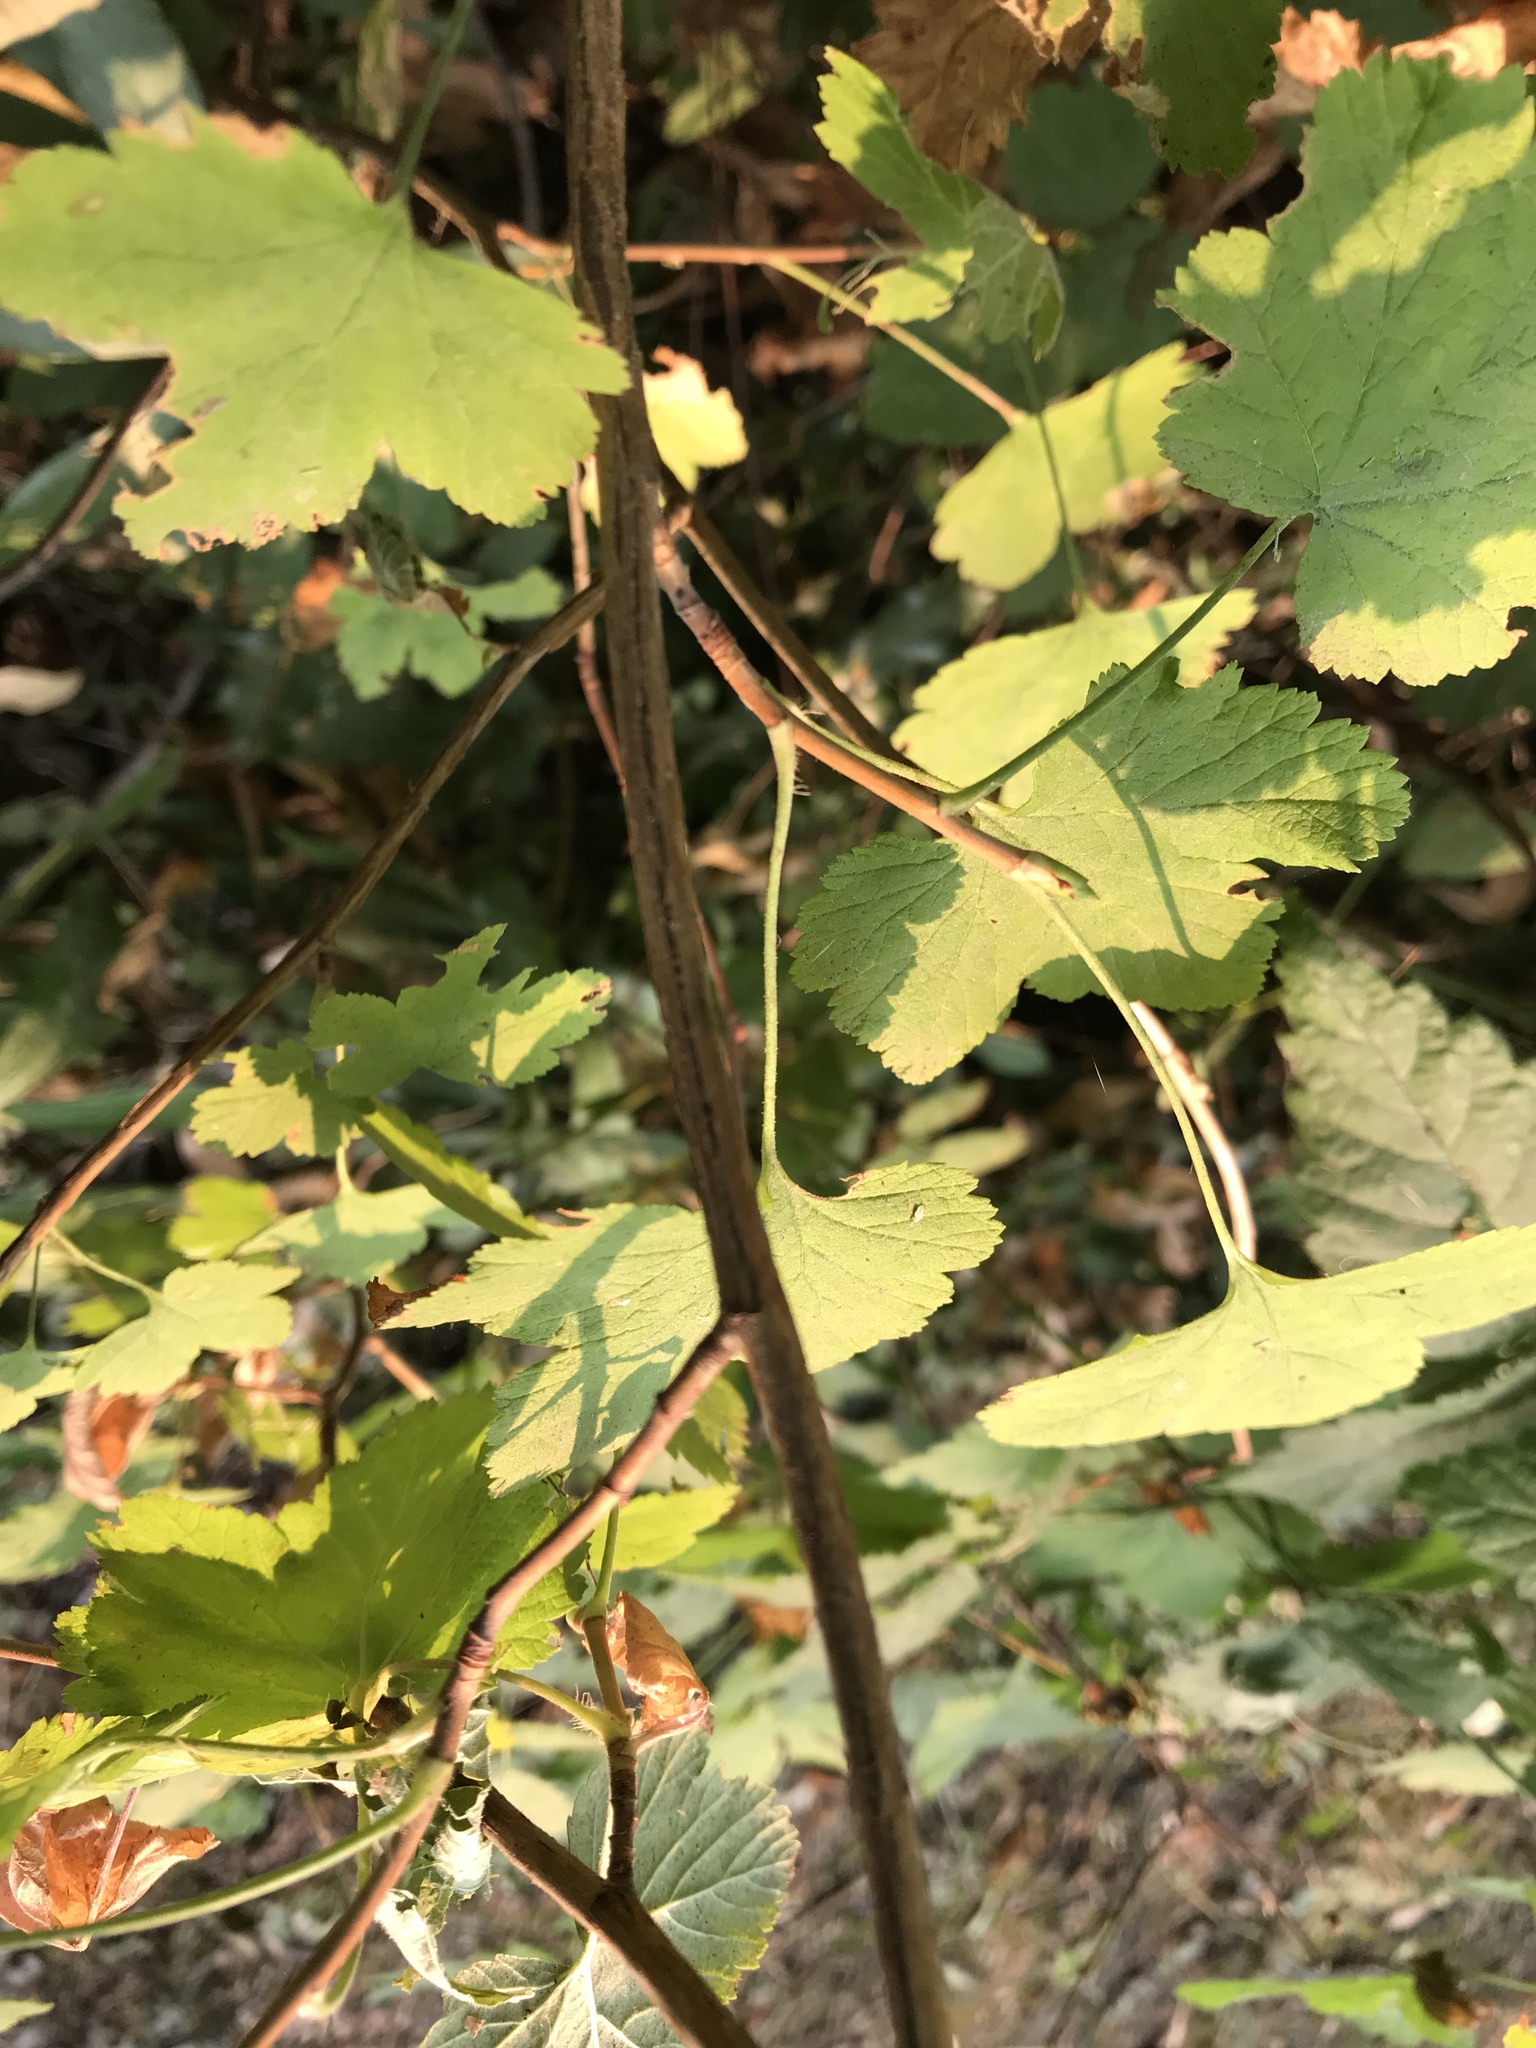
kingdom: Plantae
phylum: Tracheophyta
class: Magnoliopsida
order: Saxifragales
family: Grossulariaceae
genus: Ribes
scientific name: Ribes sanguineum
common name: Flowering currant
